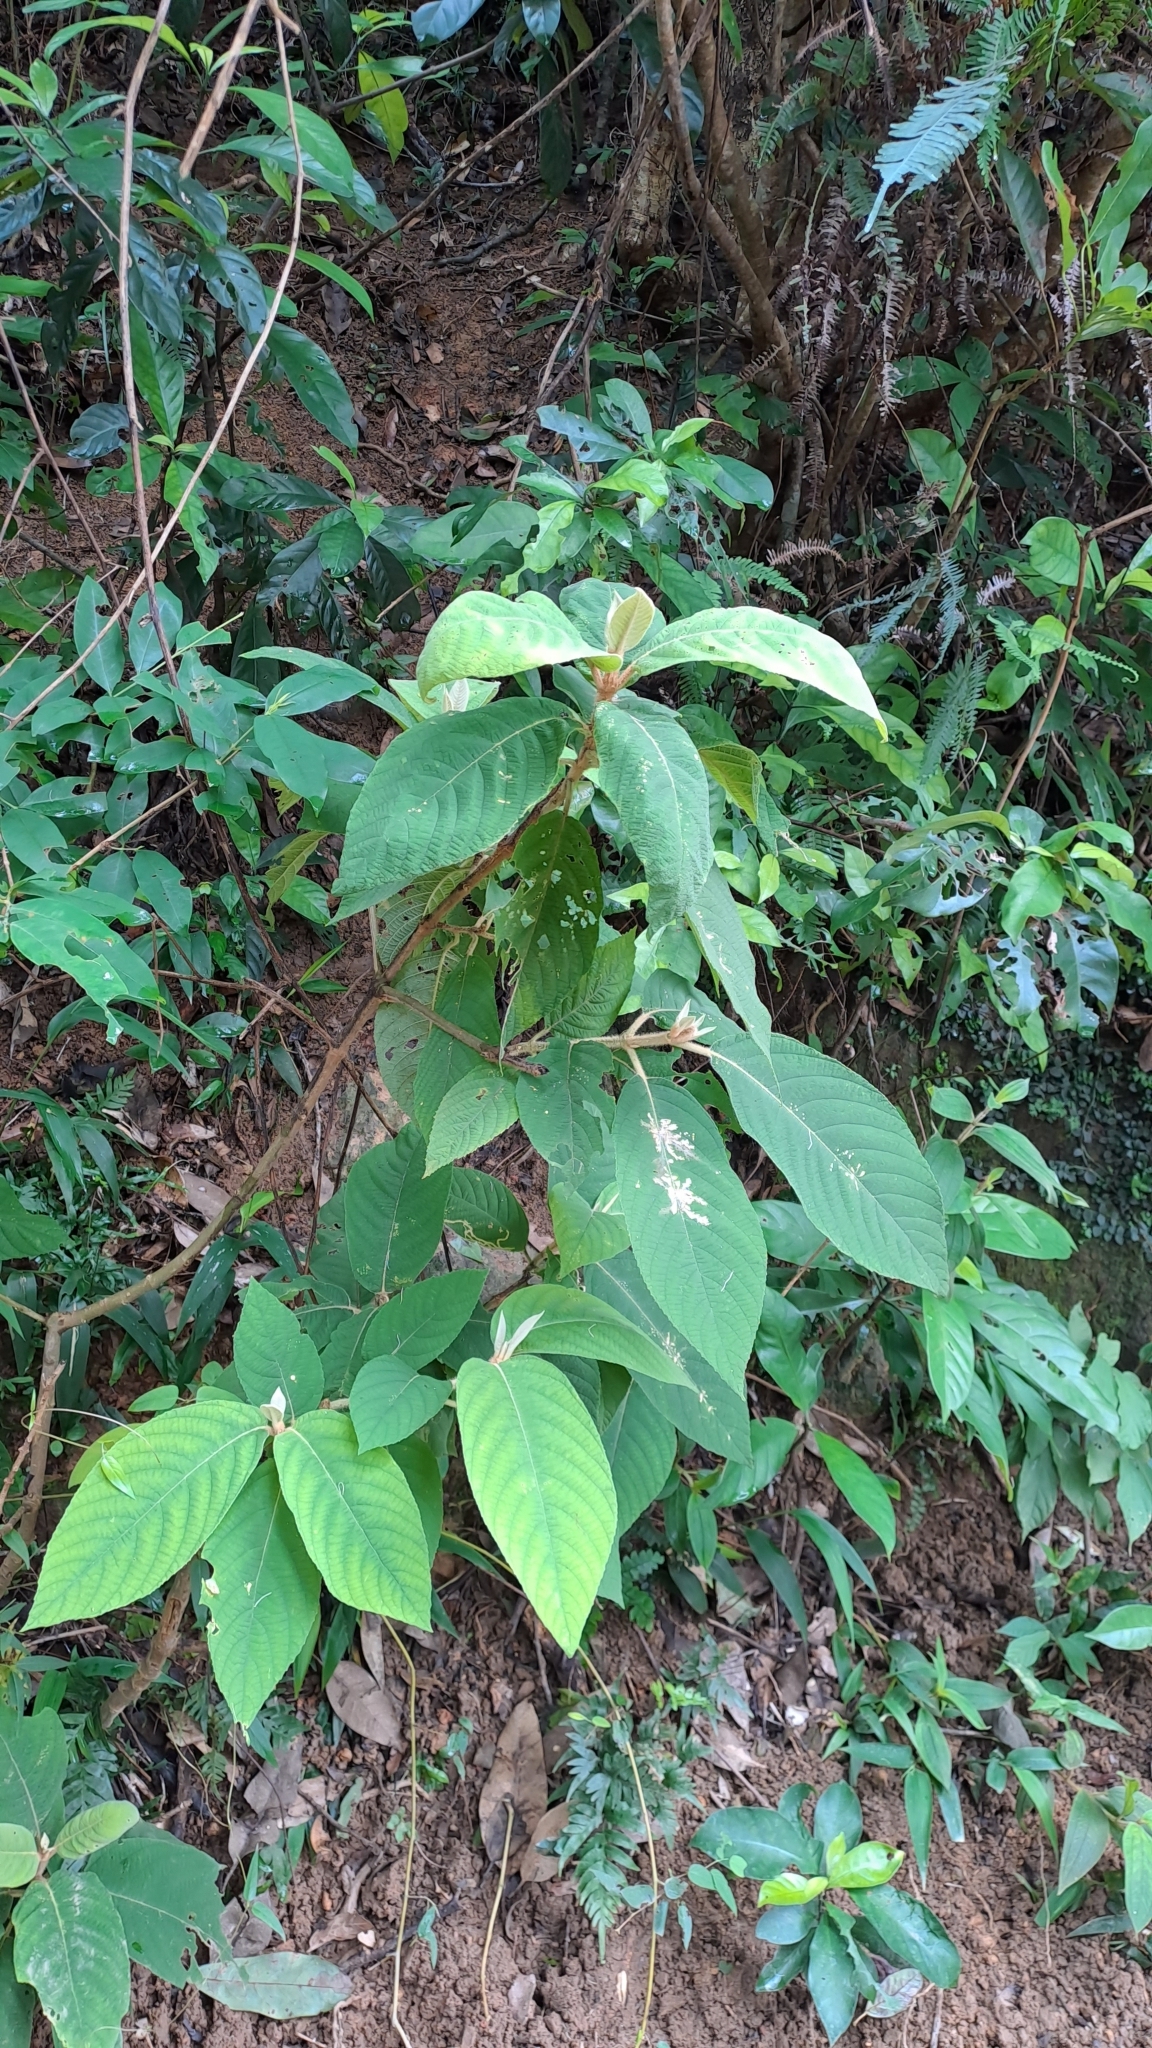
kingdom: Plantae
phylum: Tracheophyta
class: Magnoliopsida
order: Lamiales
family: Lamiaceae
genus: Callicarpa
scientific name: Callicarpa kochiana
